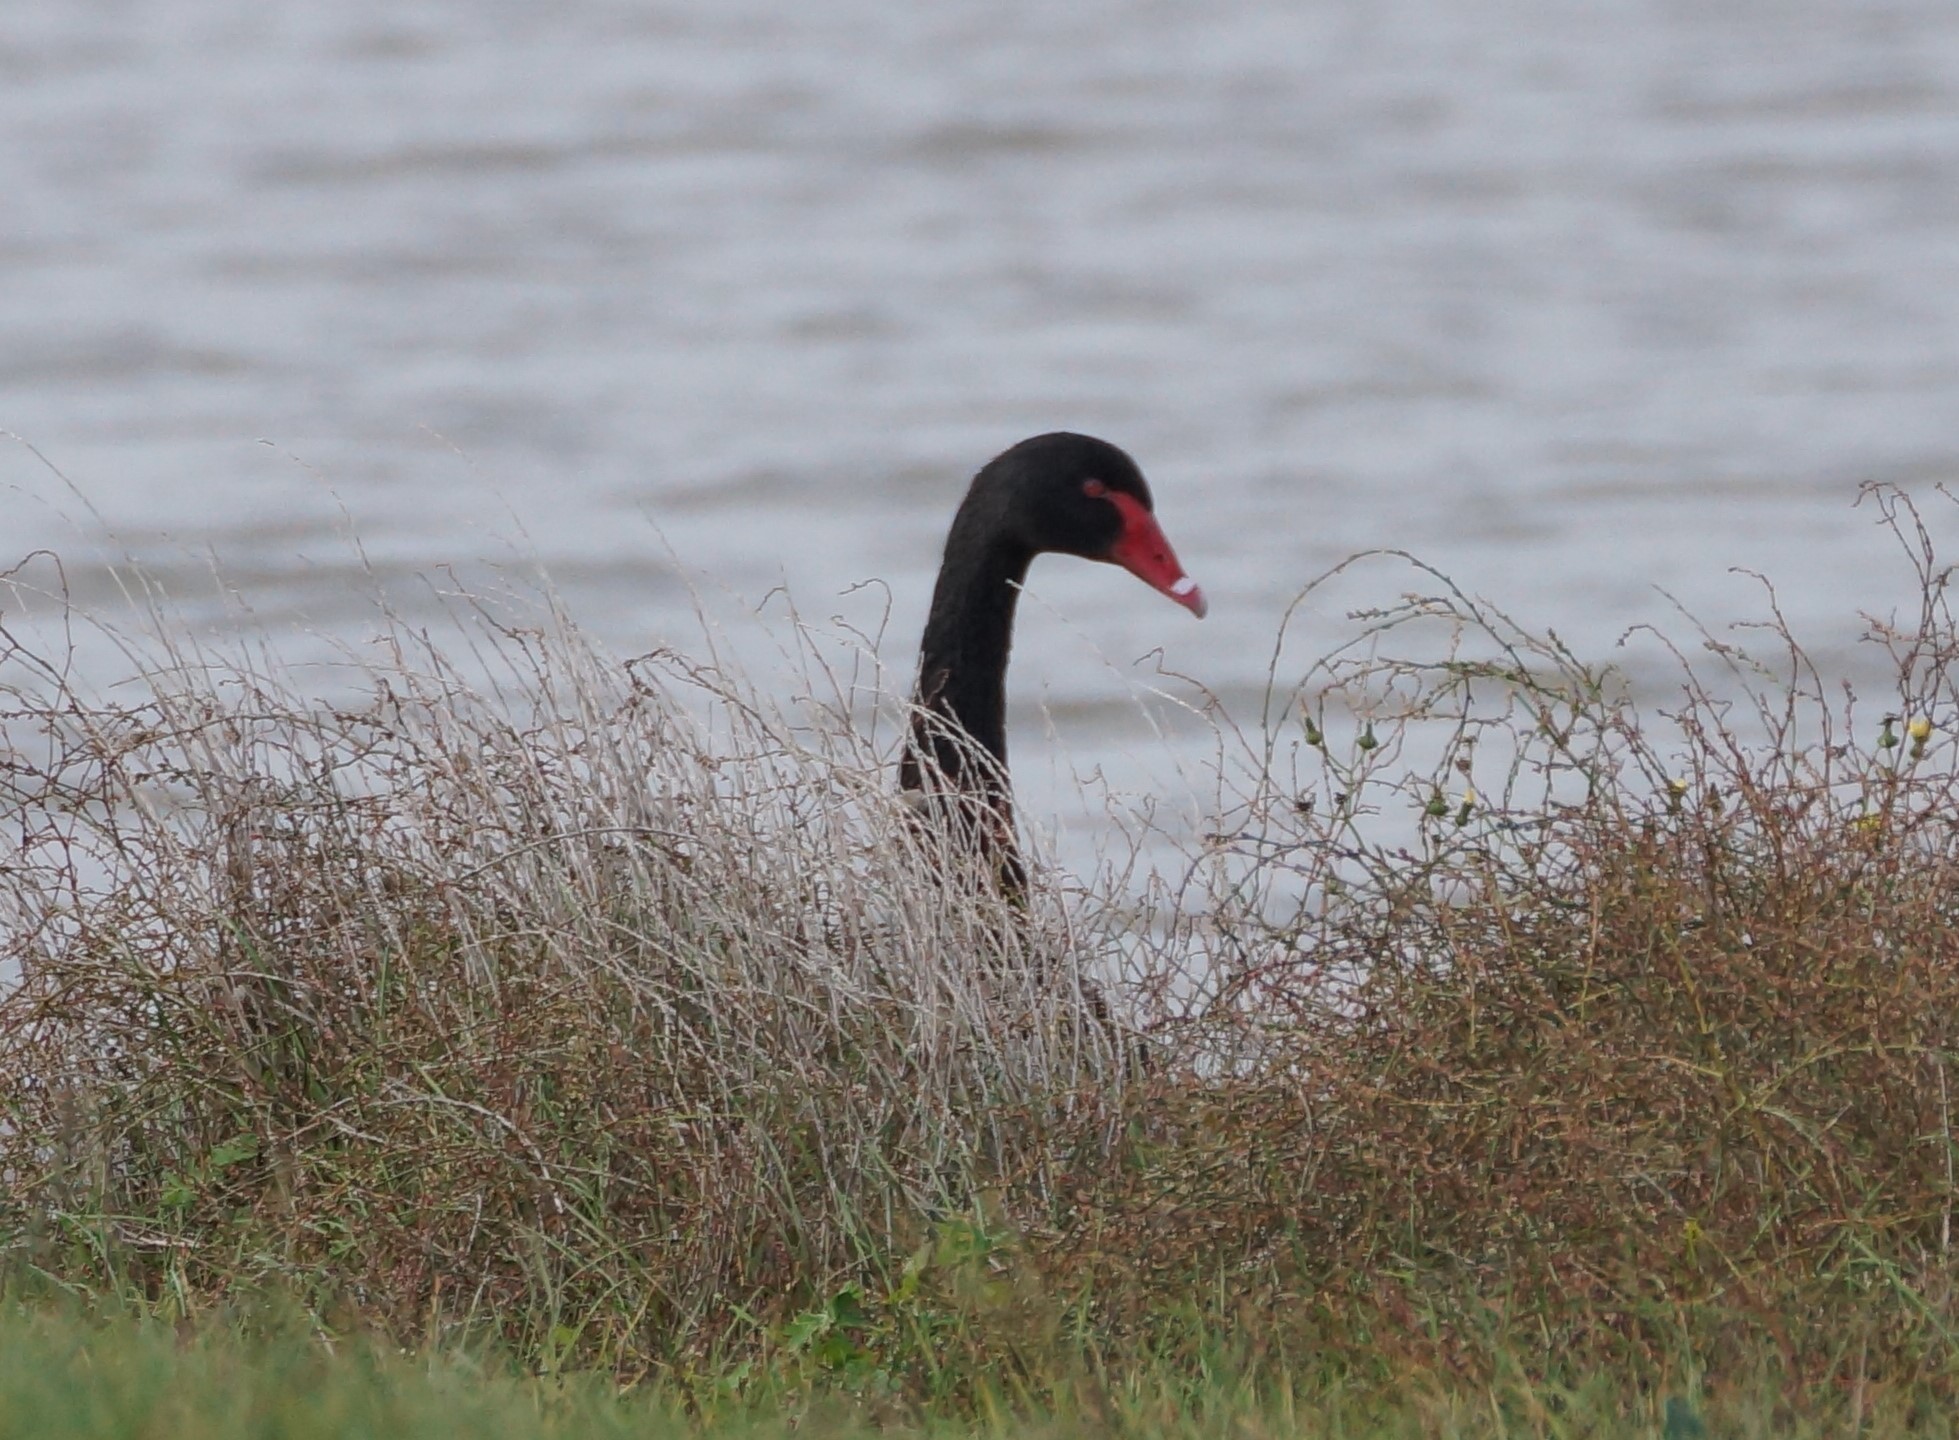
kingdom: Animalia
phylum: Chordata
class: Aves
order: Anseriformes
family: Anatidae
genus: Cygnus
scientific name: Cygnus atratus
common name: Black swan
